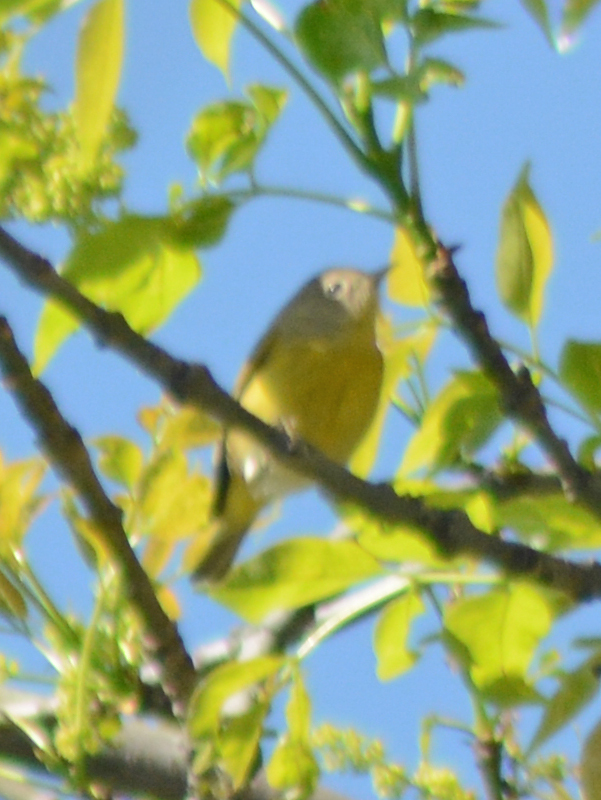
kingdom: Animalia
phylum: Chordata
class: Aves
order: Passeriformes
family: Parulidae
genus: Leiothlypis
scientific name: Leiothlypis ruficapilla
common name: Nashville warbler
